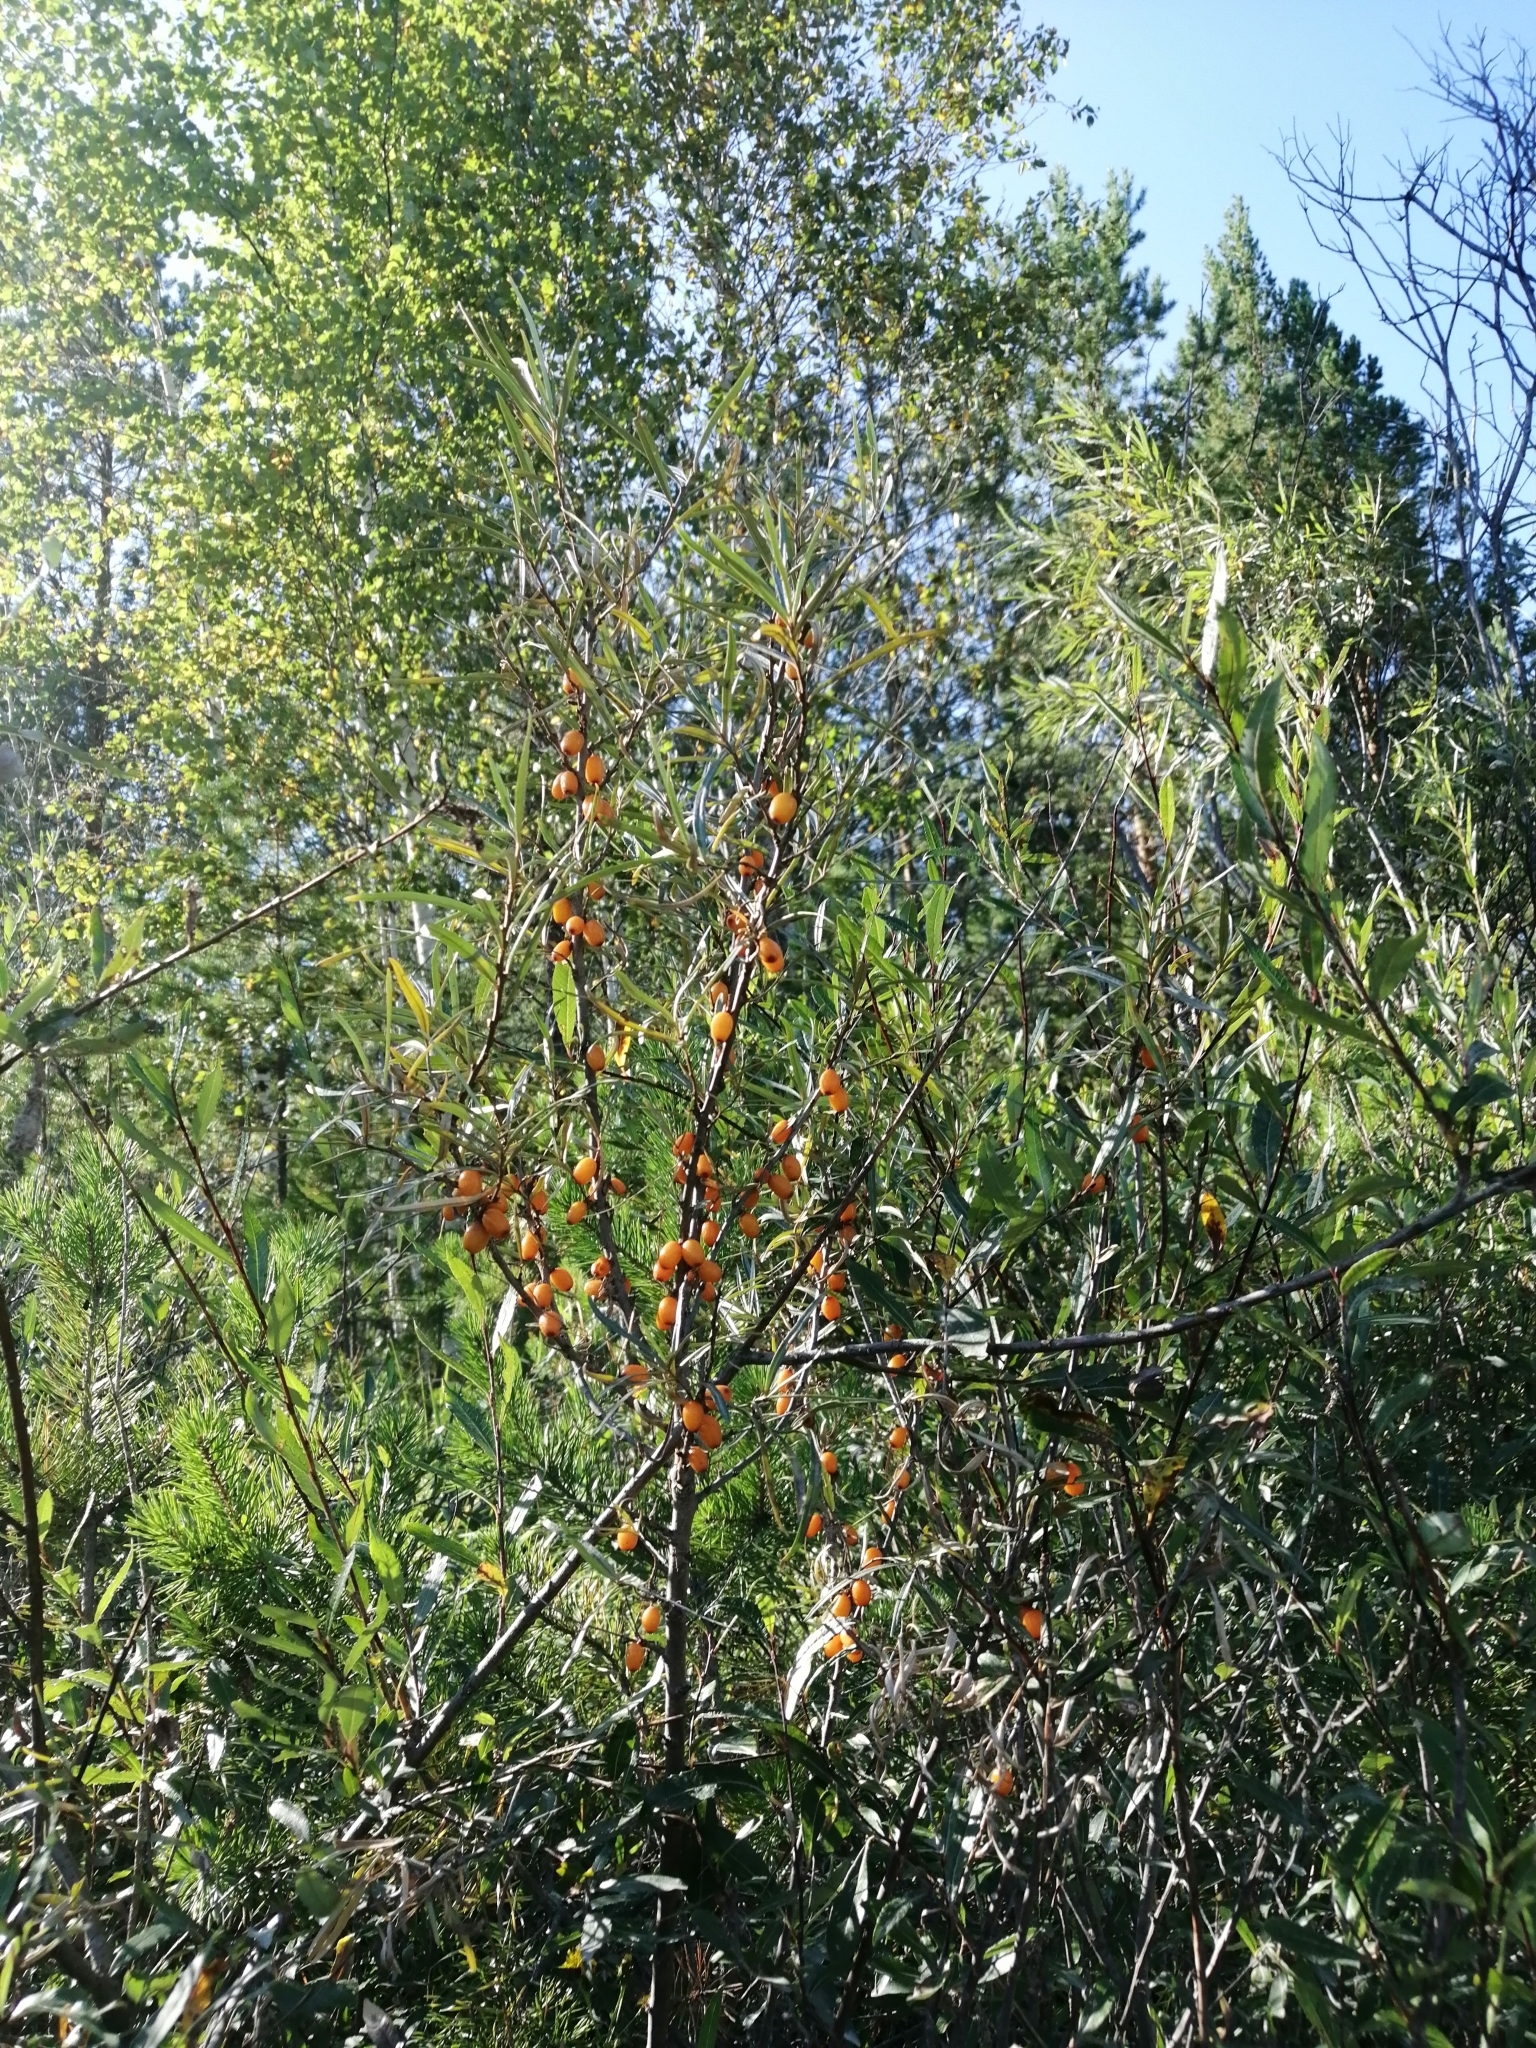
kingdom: Plantae
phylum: Tracheophyta
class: Magnoliopsida
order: Rosales
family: Elaeagnaceae
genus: Hippophae
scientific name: Hippophae rhamnoides
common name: Sea-buckthorn
